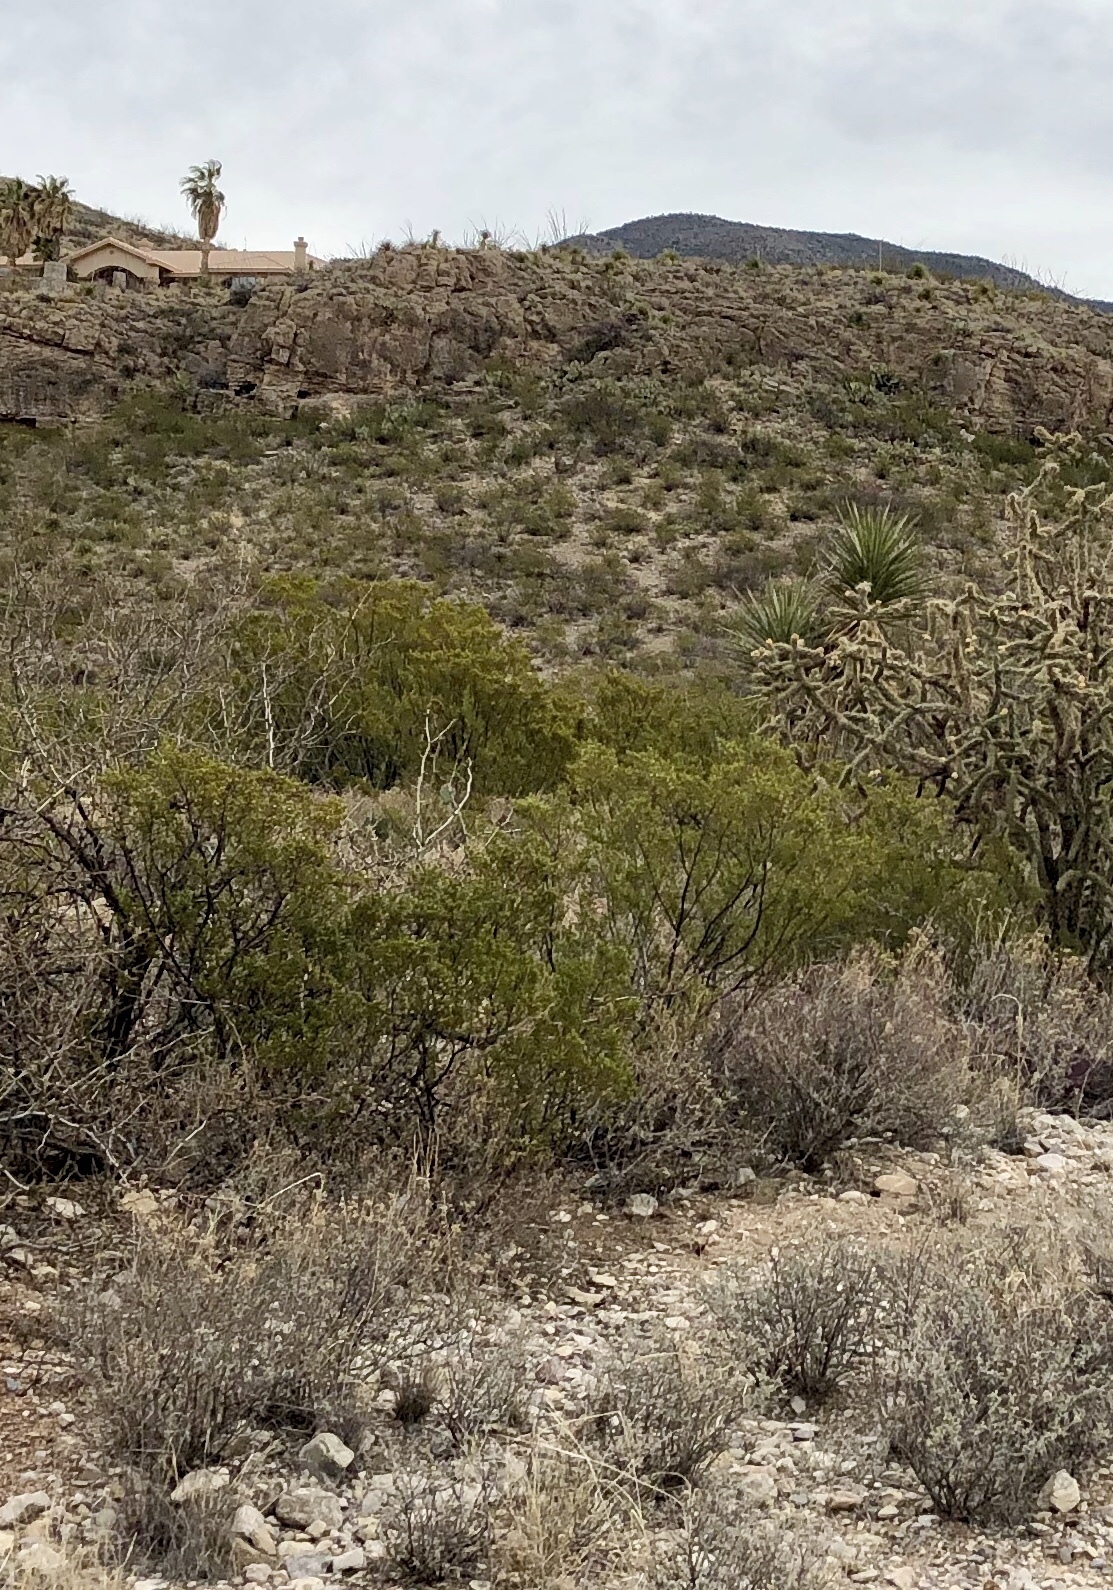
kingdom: Plantae
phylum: Tracheophyta
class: Magnoliopsida
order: Zygophyllales
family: Zygophyllaceae
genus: Larrea
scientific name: Larrea tridentata
